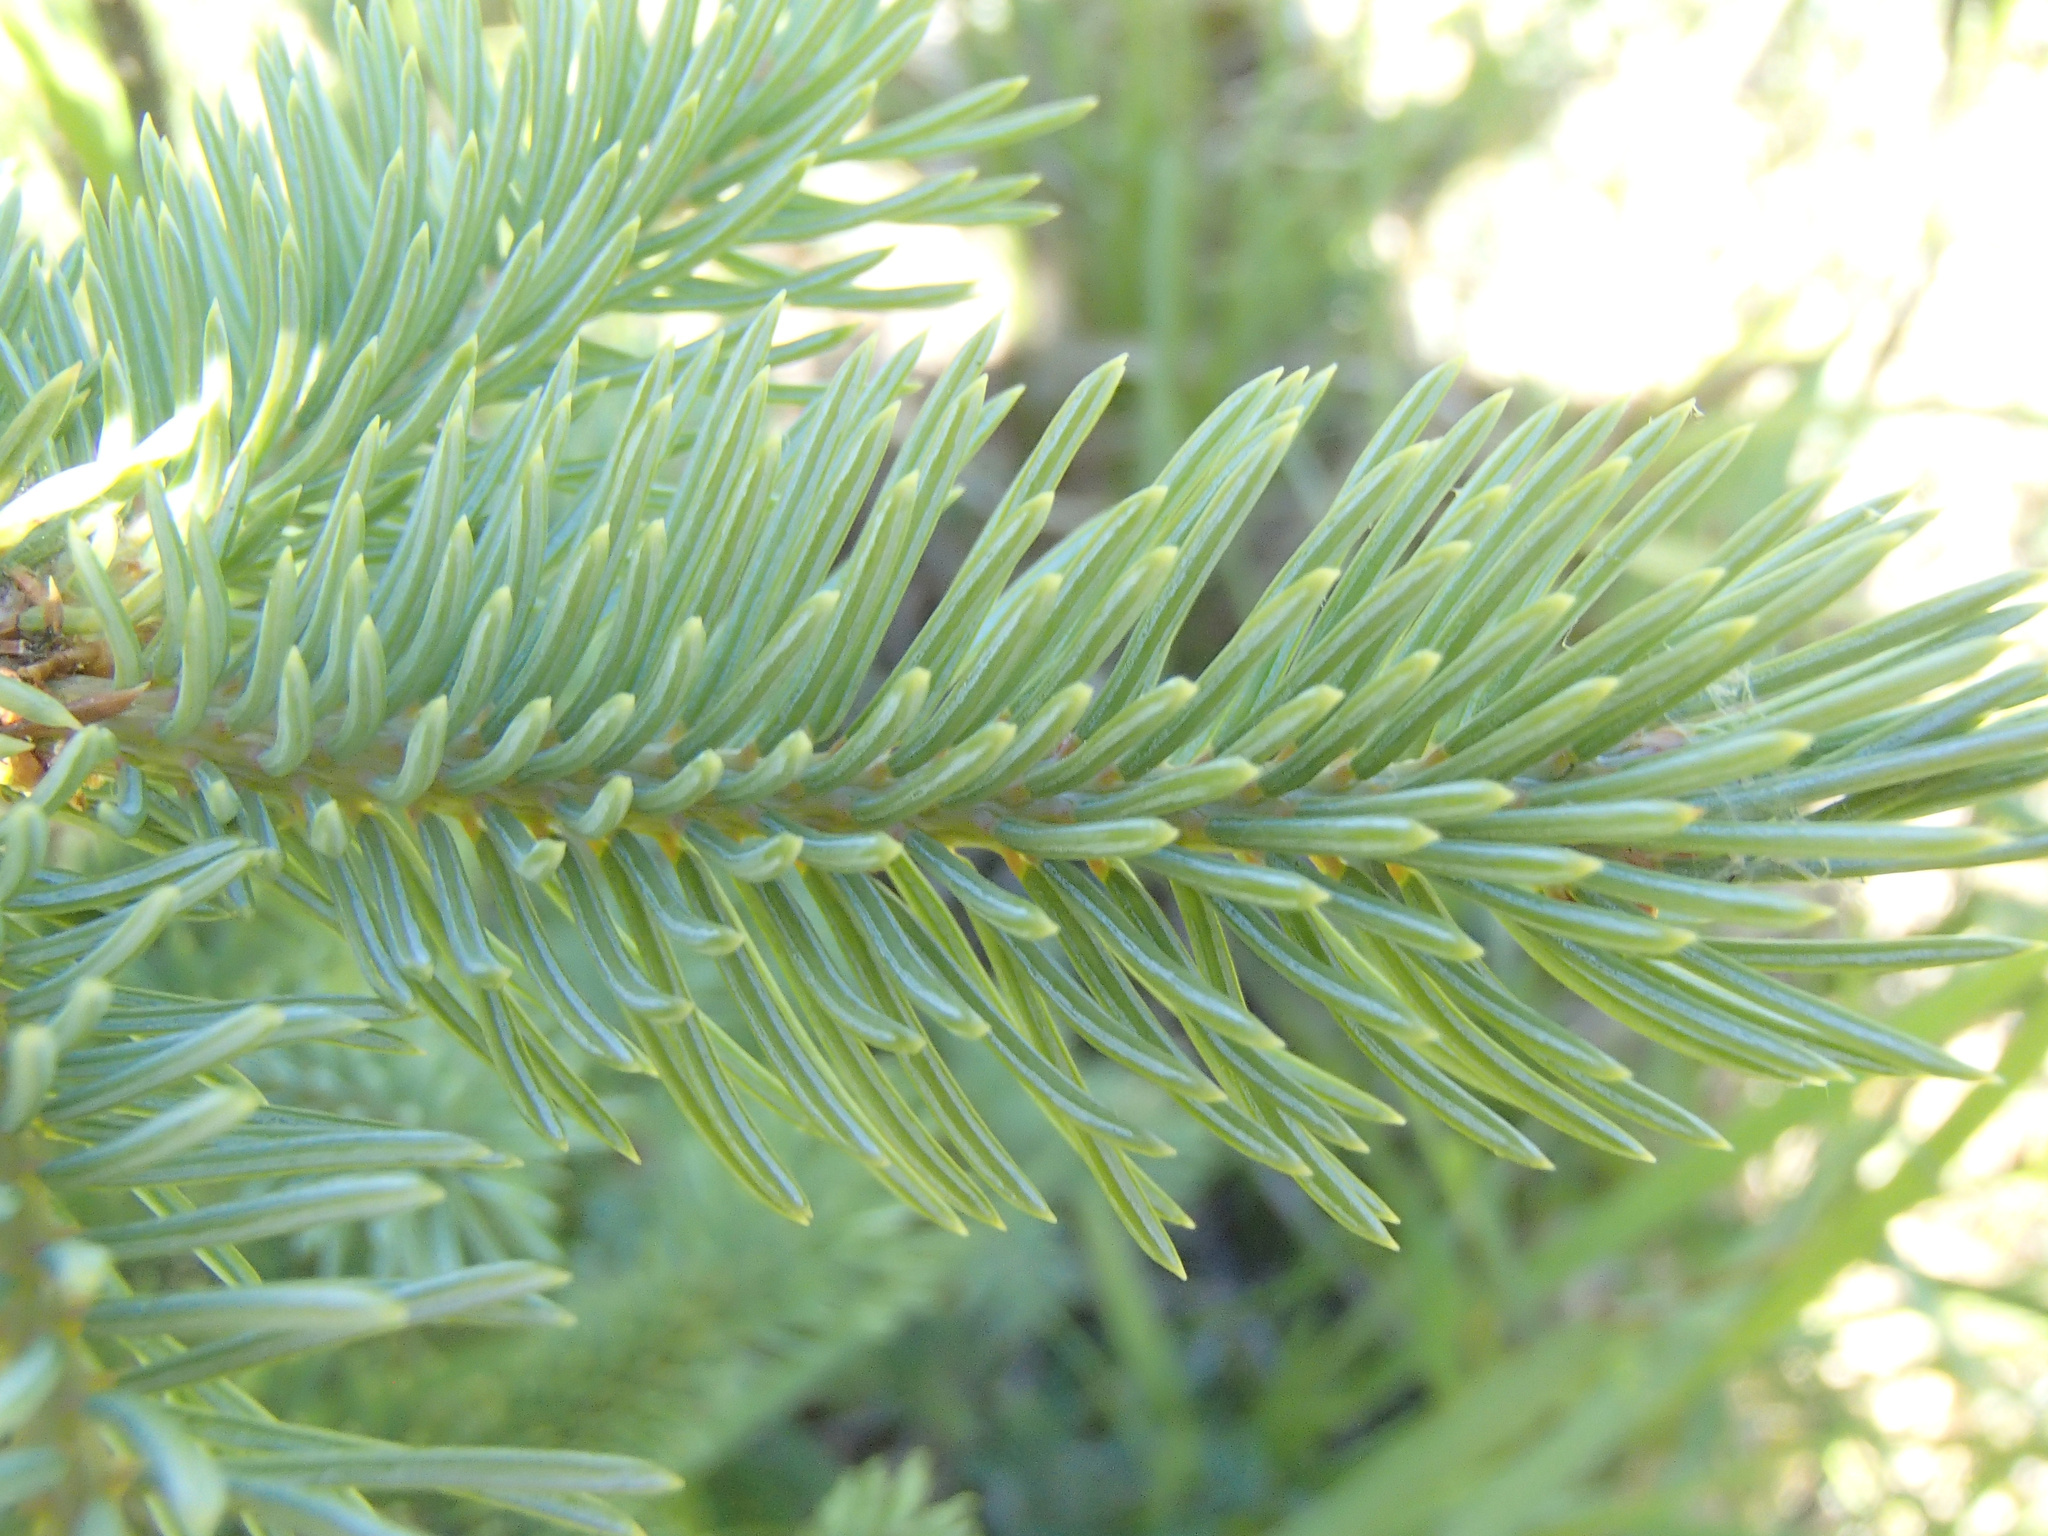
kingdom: Plantae
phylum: Tracheophyta
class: Pinopsida
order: Pinales
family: Pinaceae
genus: Picea
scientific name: Picea engelmannii
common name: Engelmann spruce
